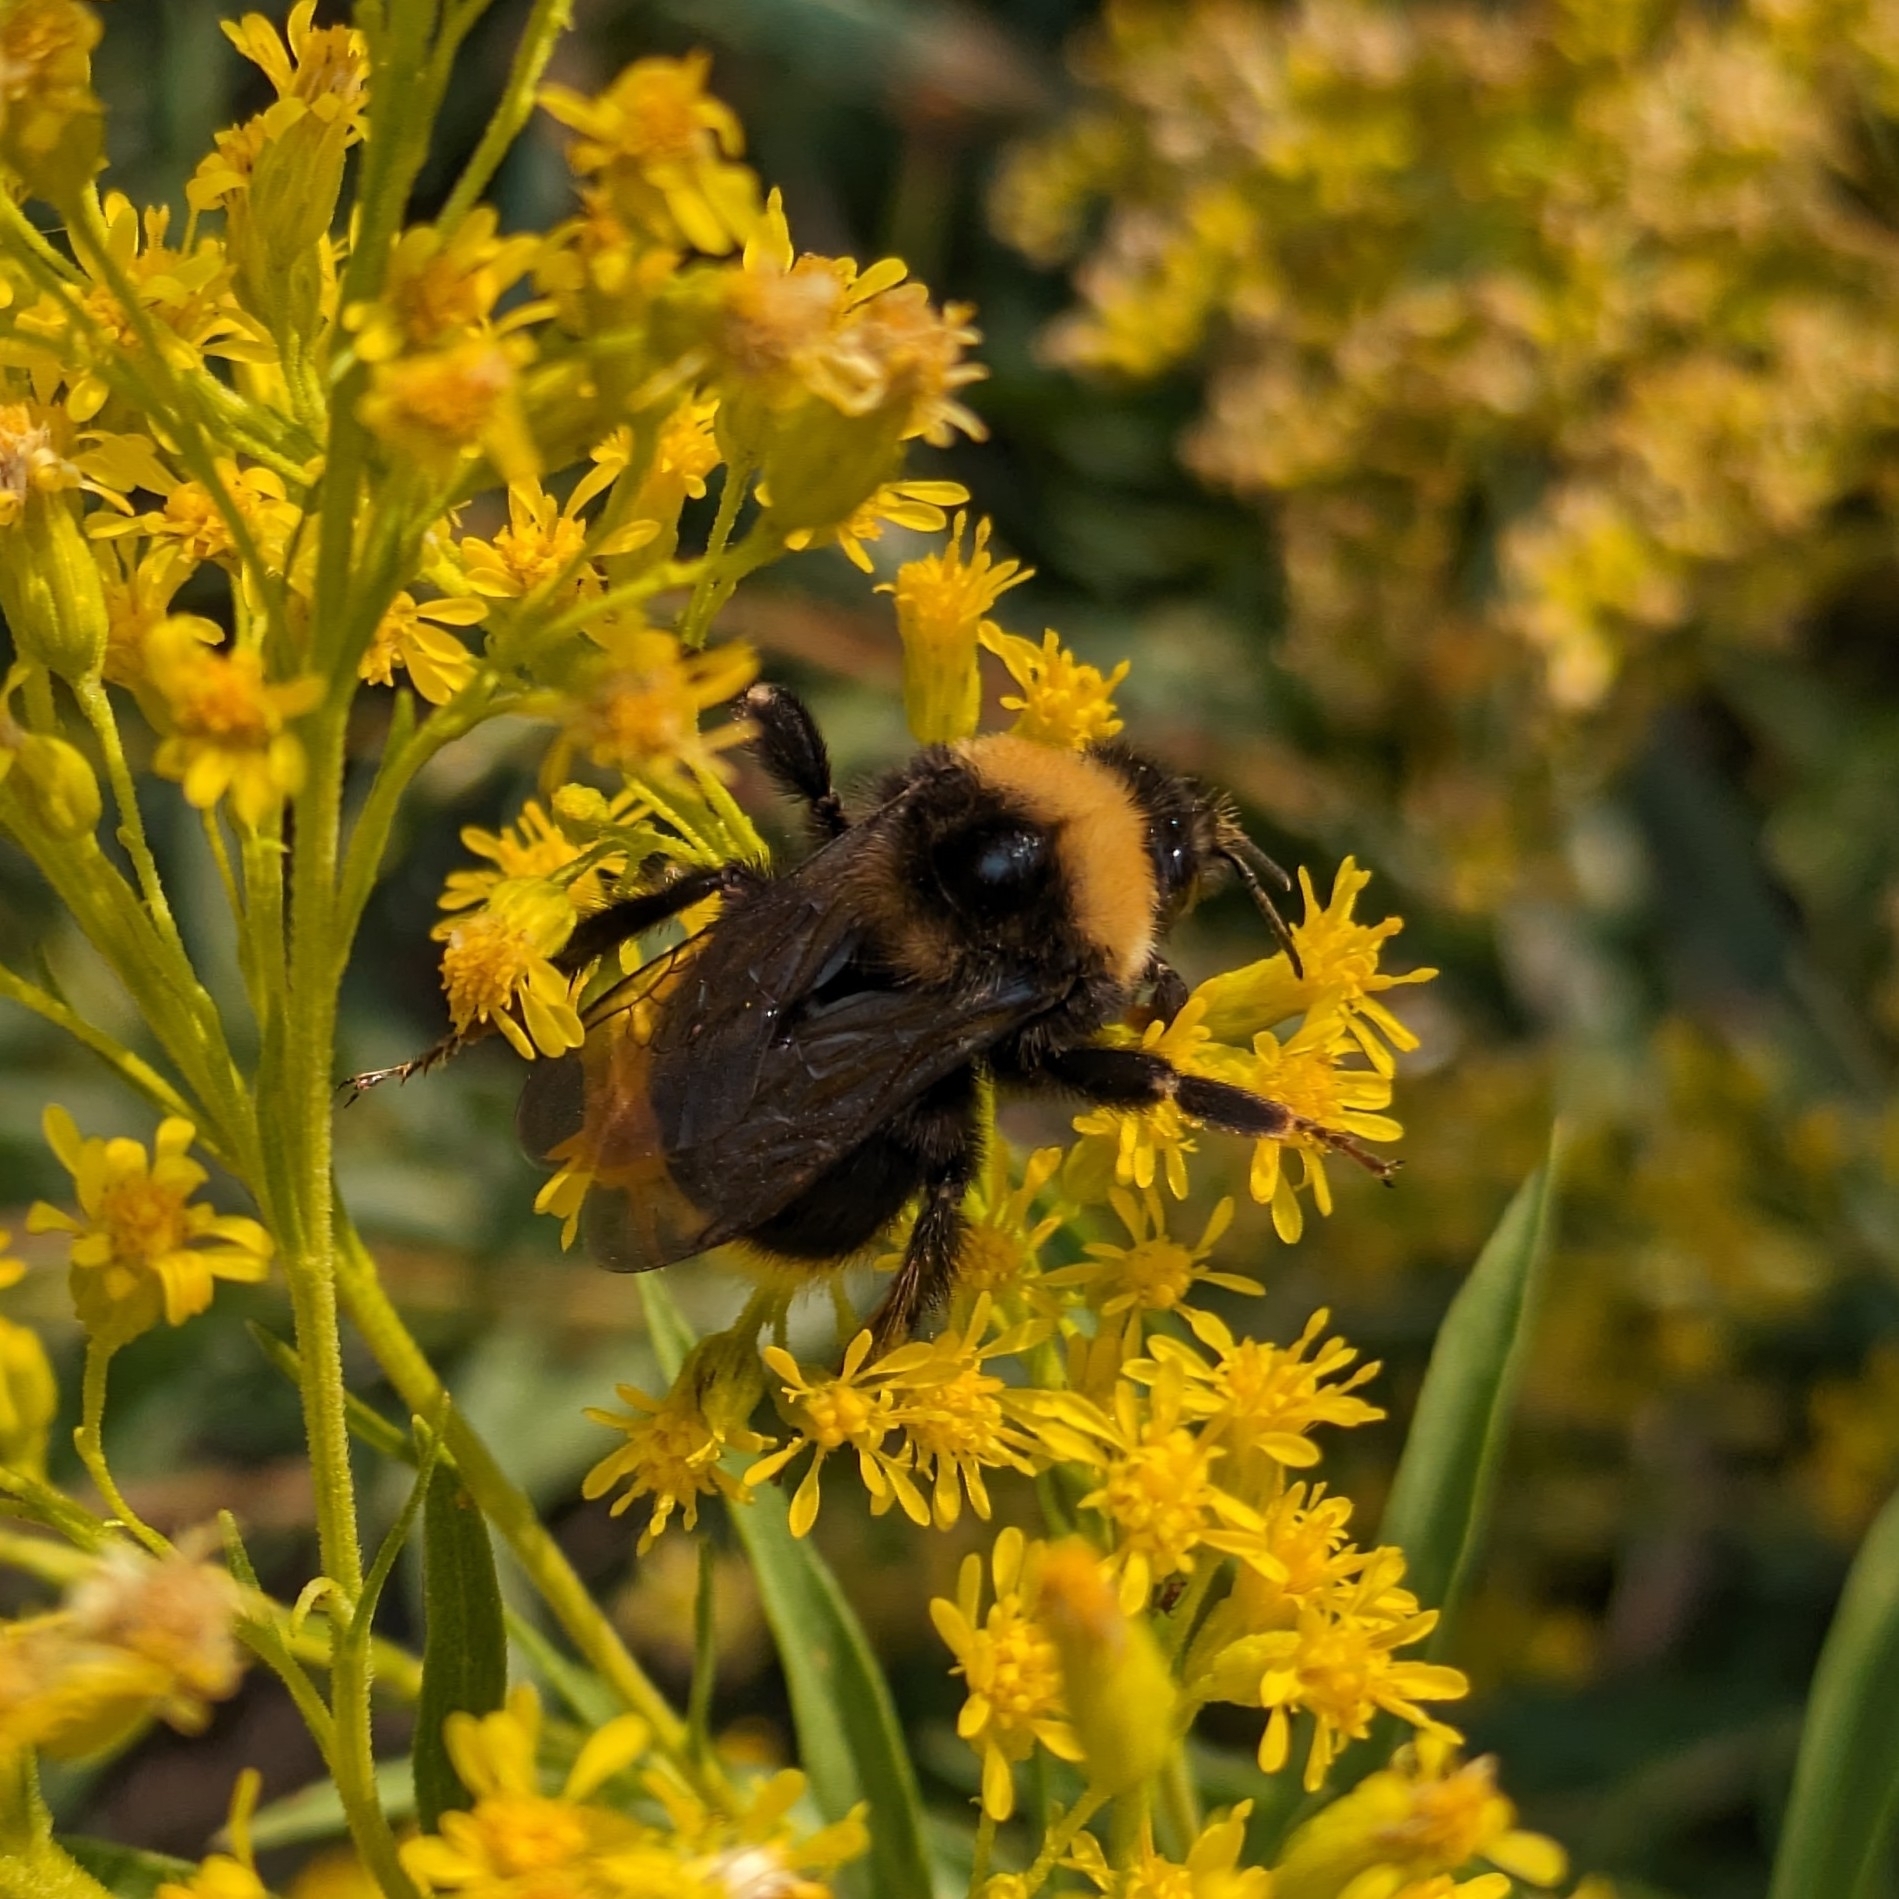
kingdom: Animalia
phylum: Arthropoda
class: Insecta
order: Hymenoptera
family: Apidae
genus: Bombus
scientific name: Bombus occidentalis
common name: Western bumble bee
